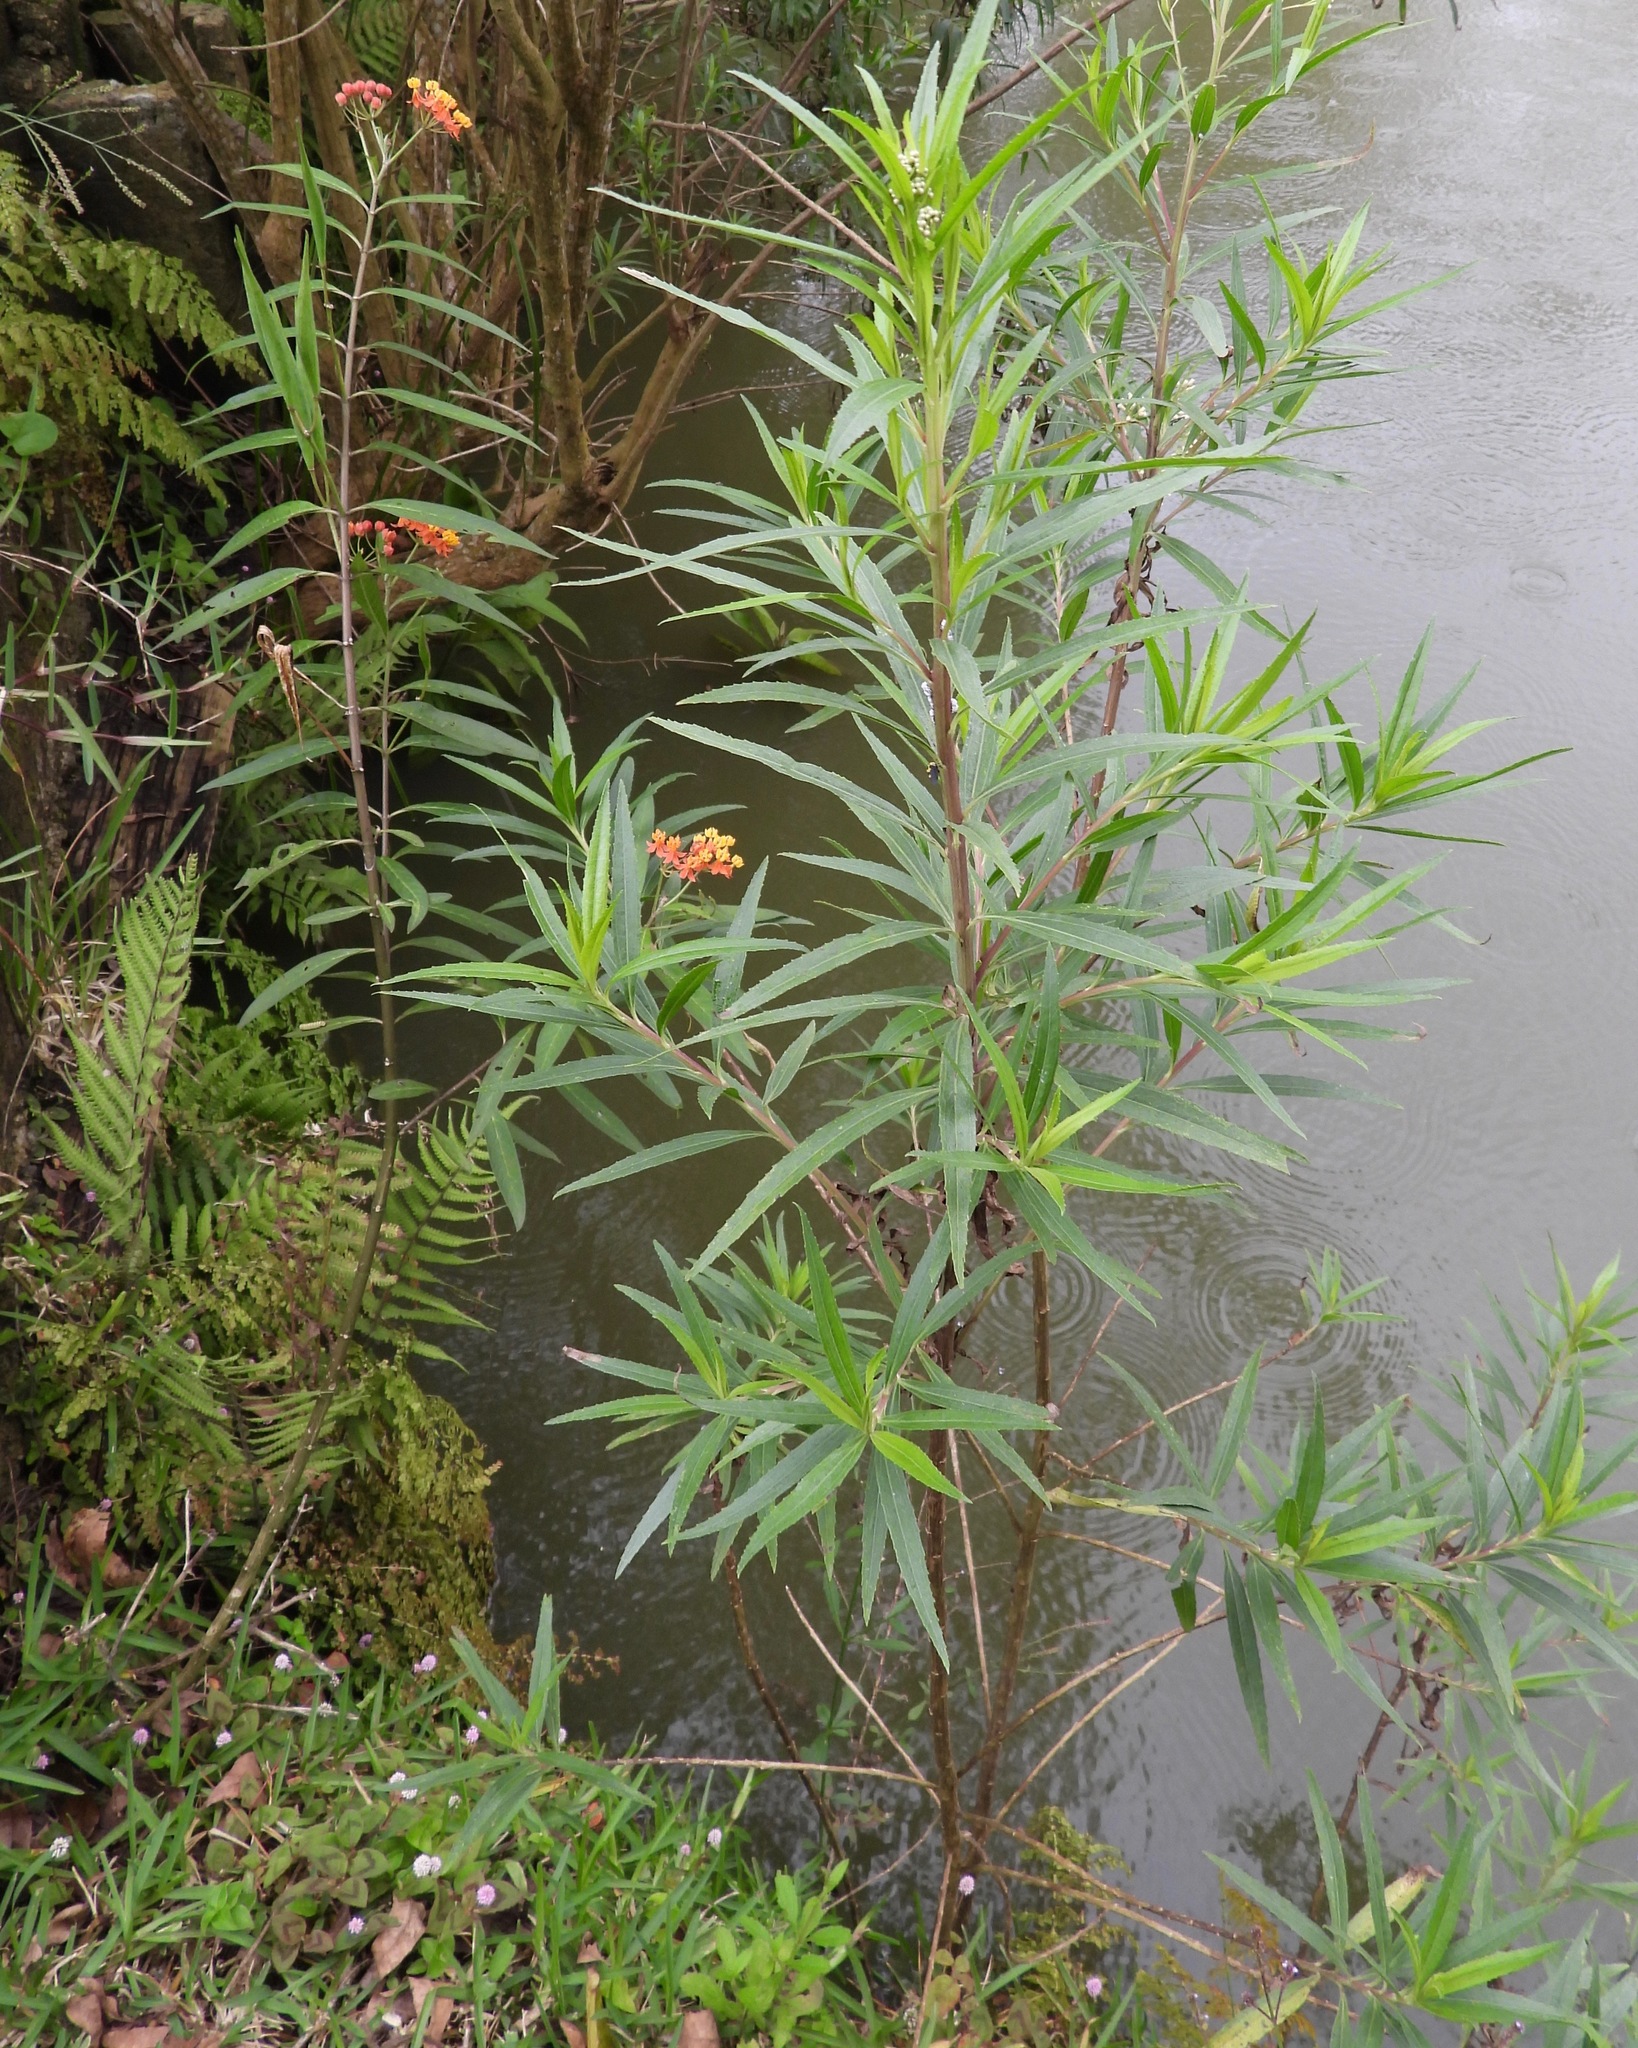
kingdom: Plantae
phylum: Tracheophyta
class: Magnoliopsida
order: Gentianales
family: Apocynaceae
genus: Asclepias
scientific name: Asclepias curassavica
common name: Bloodflower
